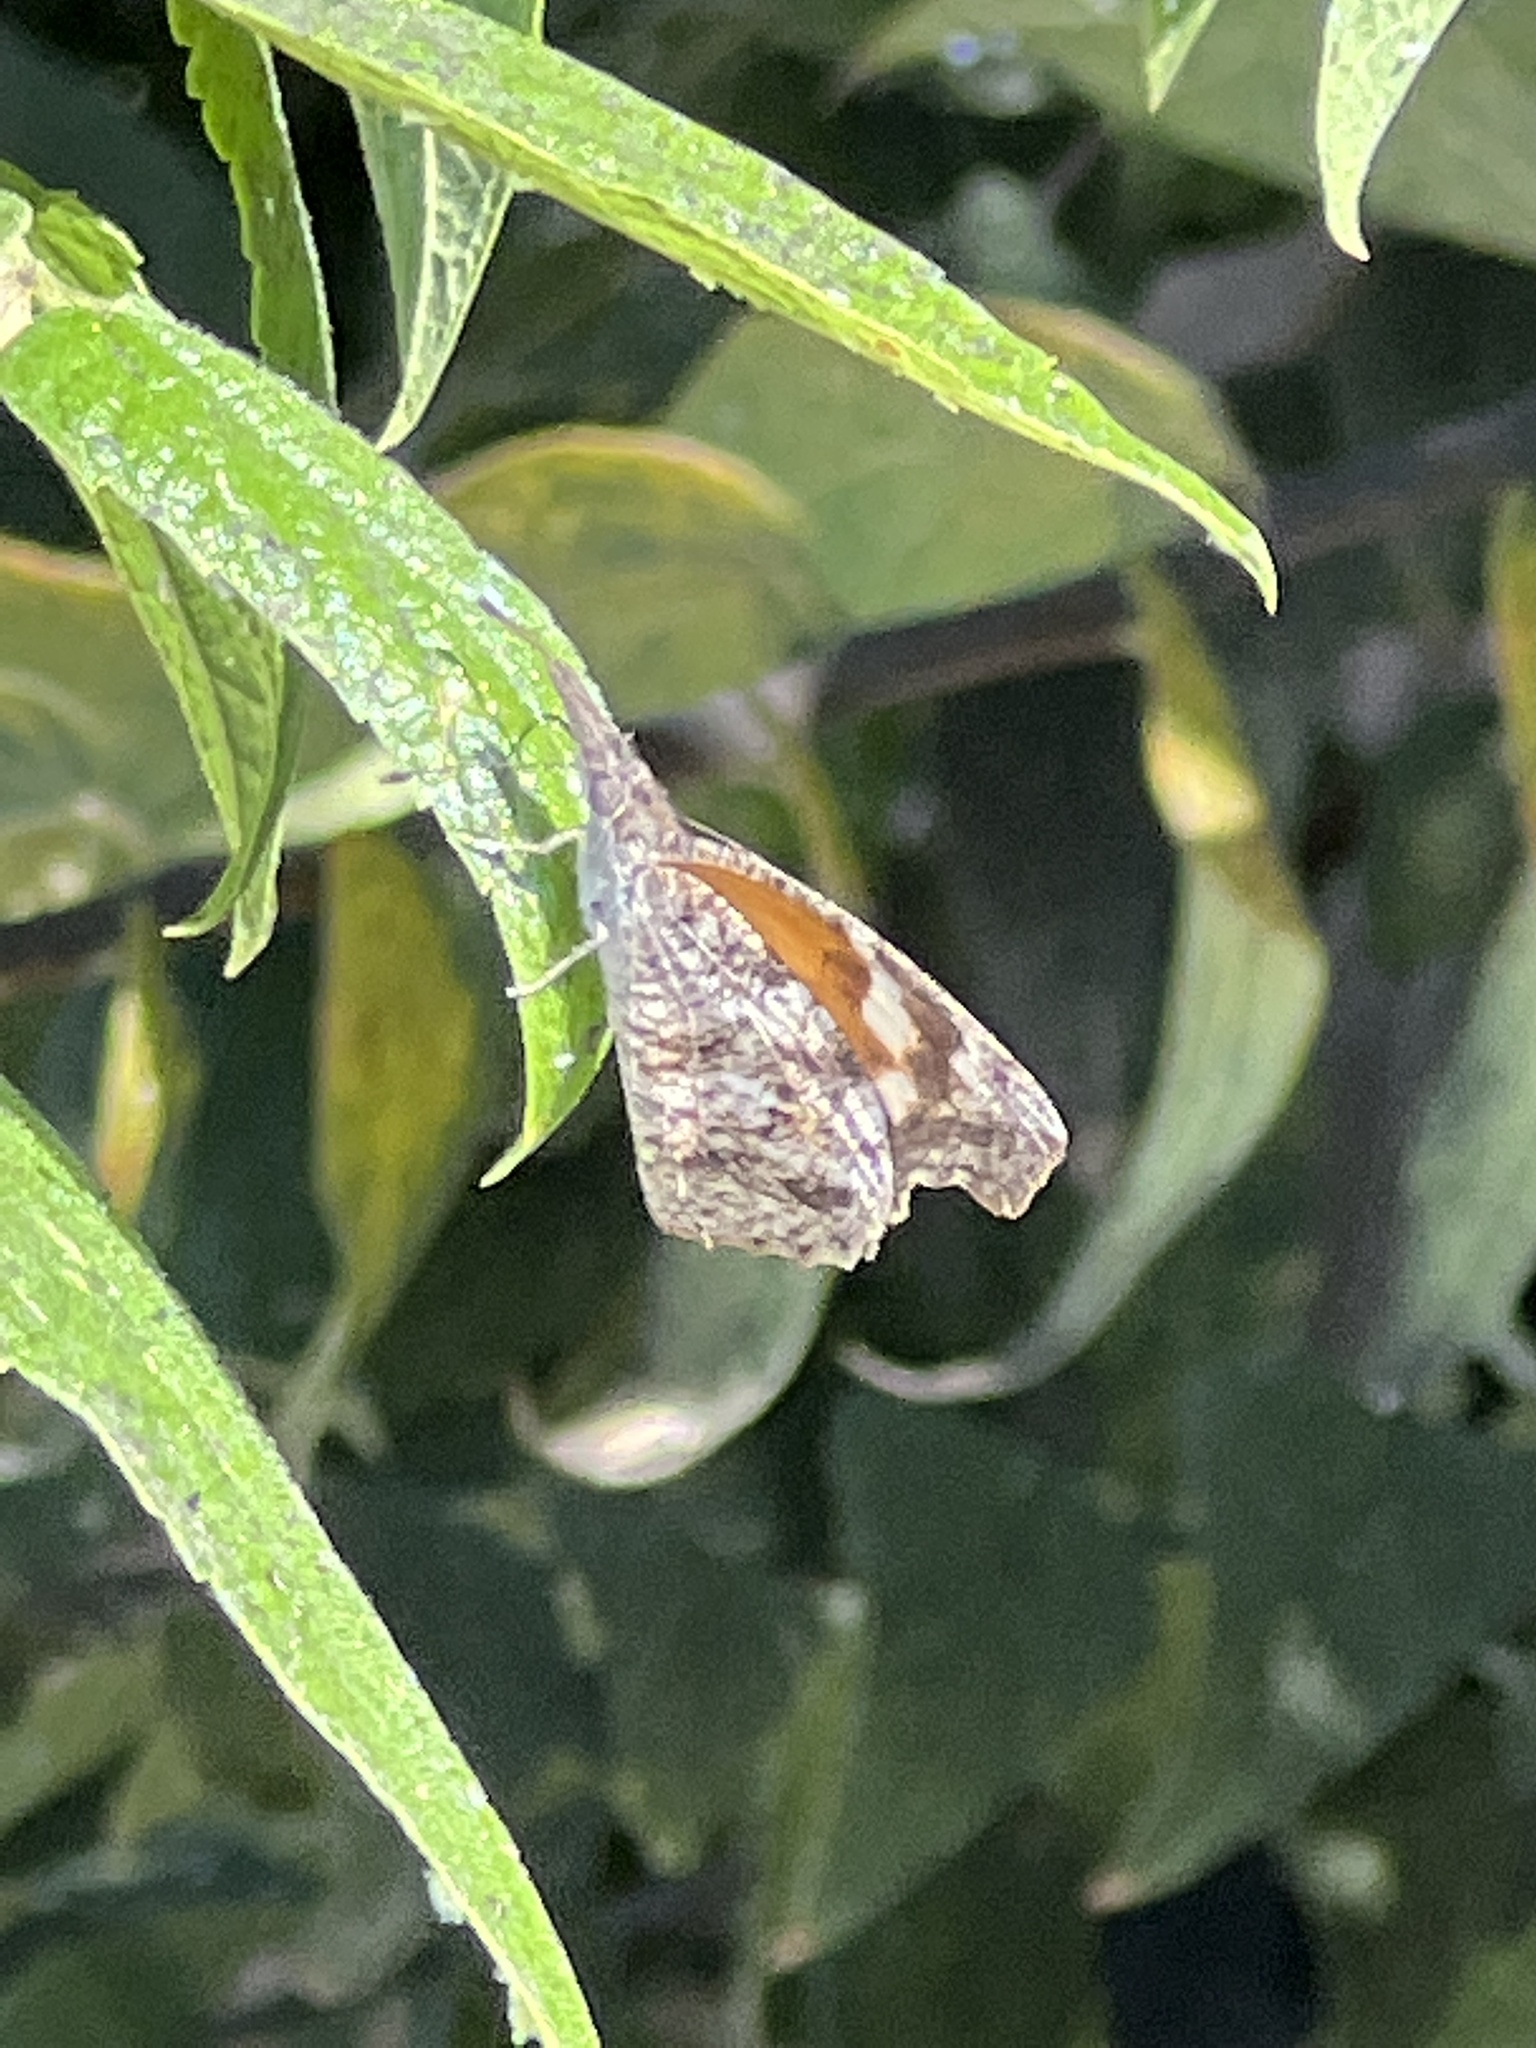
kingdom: Animalia
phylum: Arthropoda
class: Insecta
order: Lepidoptera
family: Nymphalidae
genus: Libytheana
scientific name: Libytheana carinenta
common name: American snout
